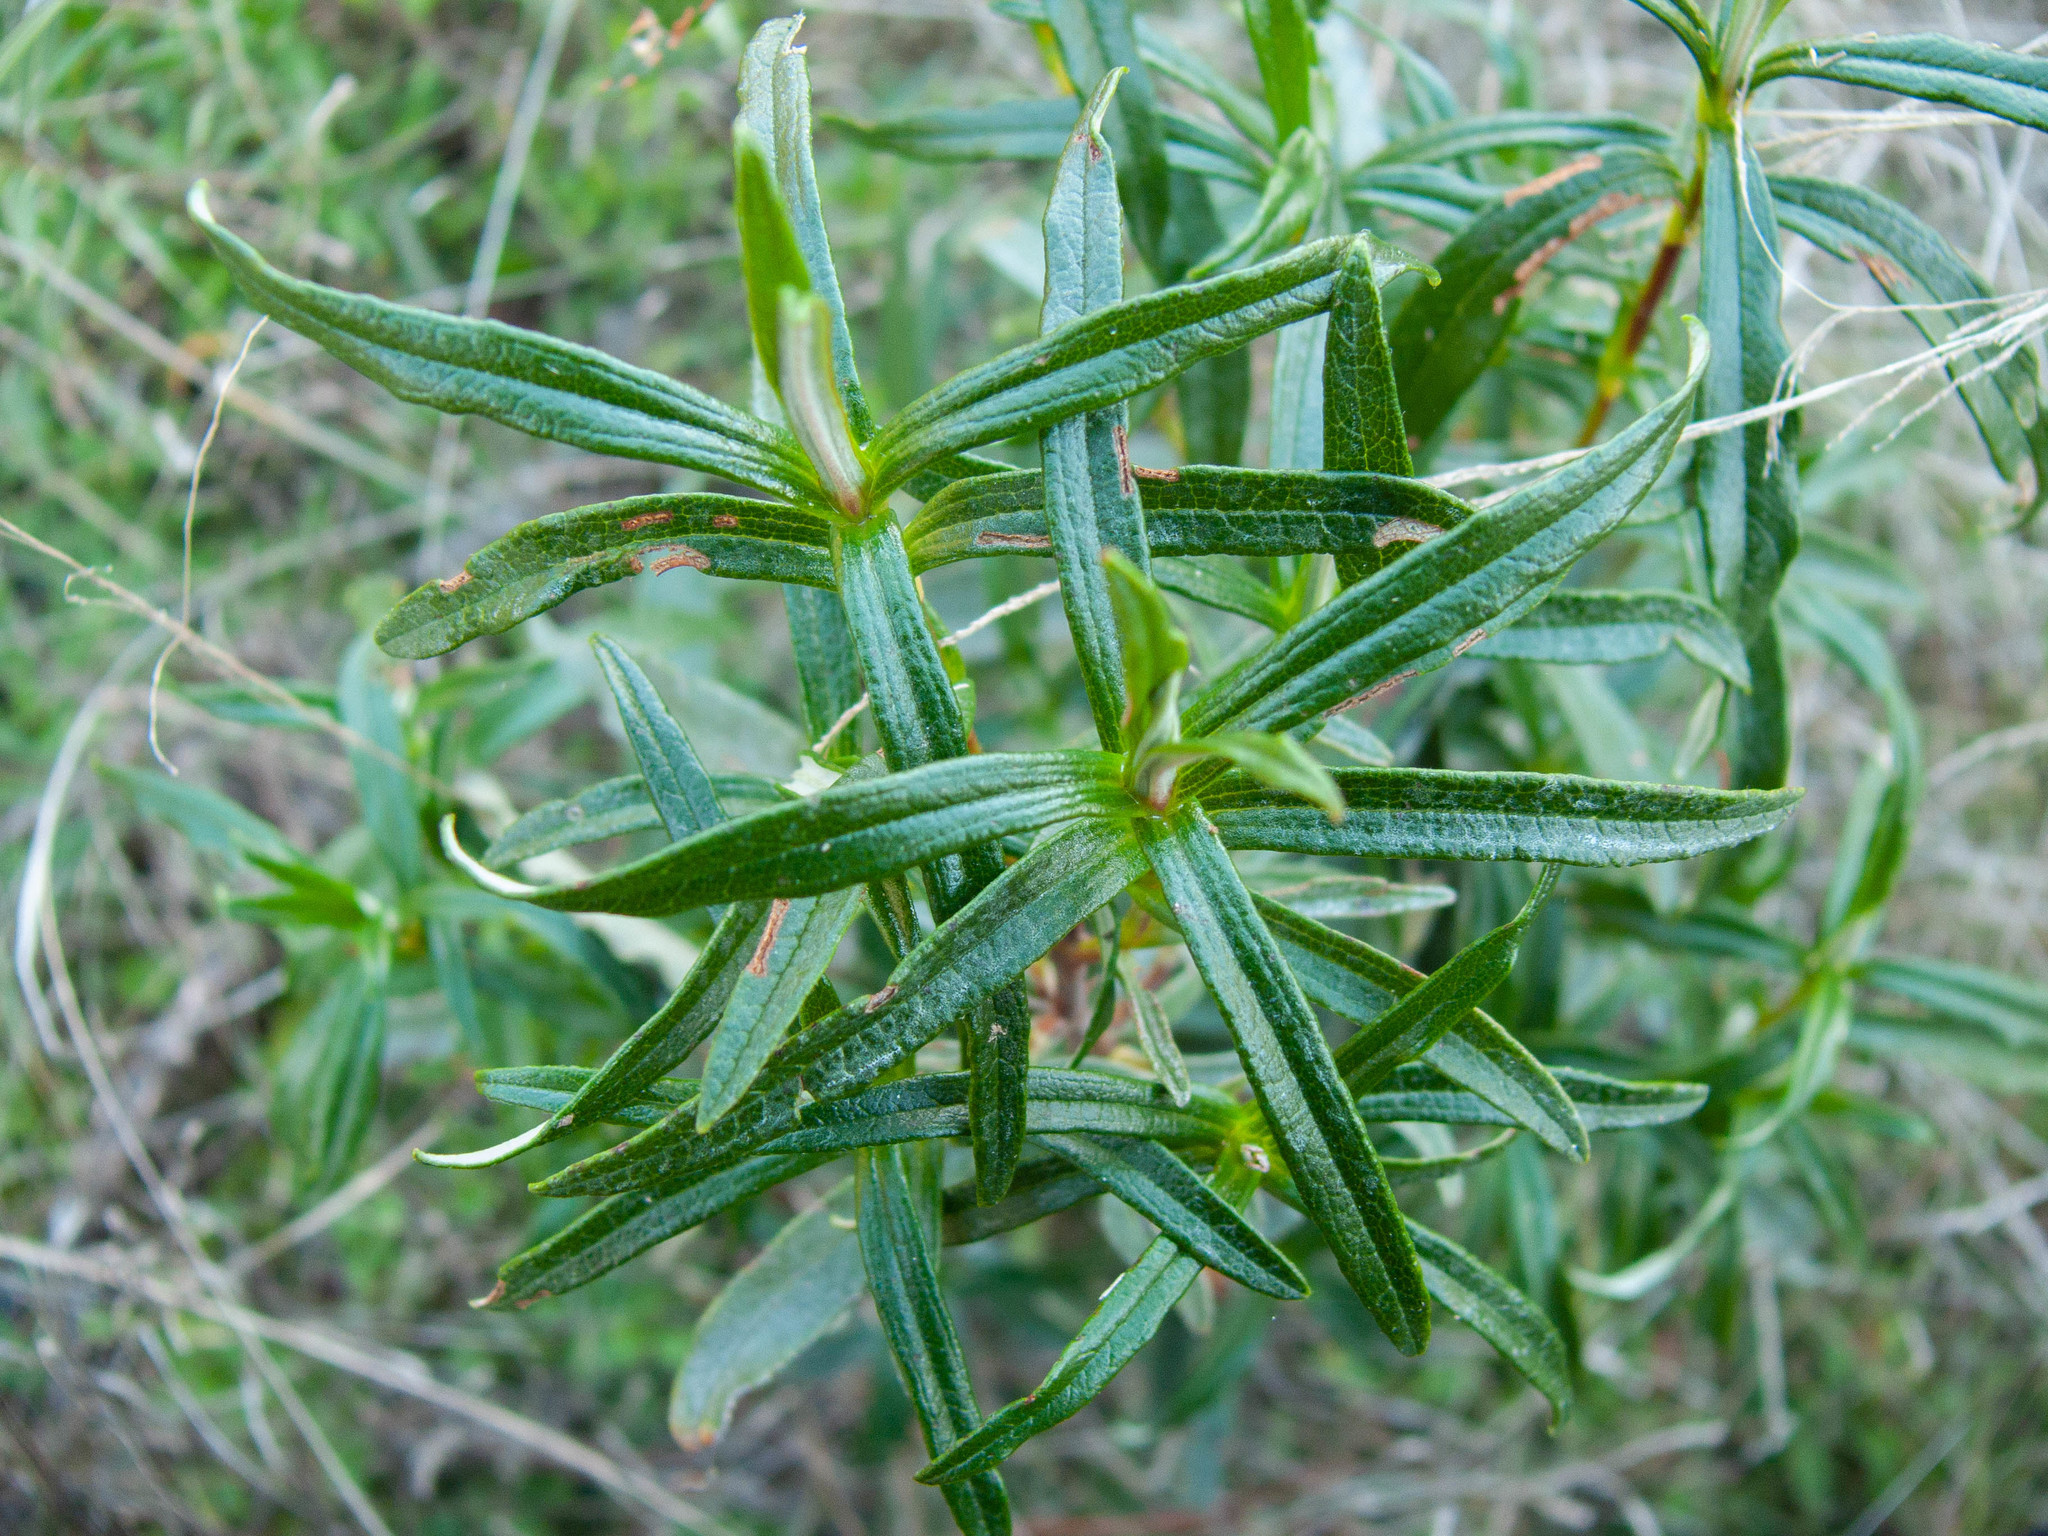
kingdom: Plantae
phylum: Tracheophyta
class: Magnoliopsida
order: Malvales
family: Cistaceae
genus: Cistus
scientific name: Cistus ladanifer
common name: Common gum cistus
